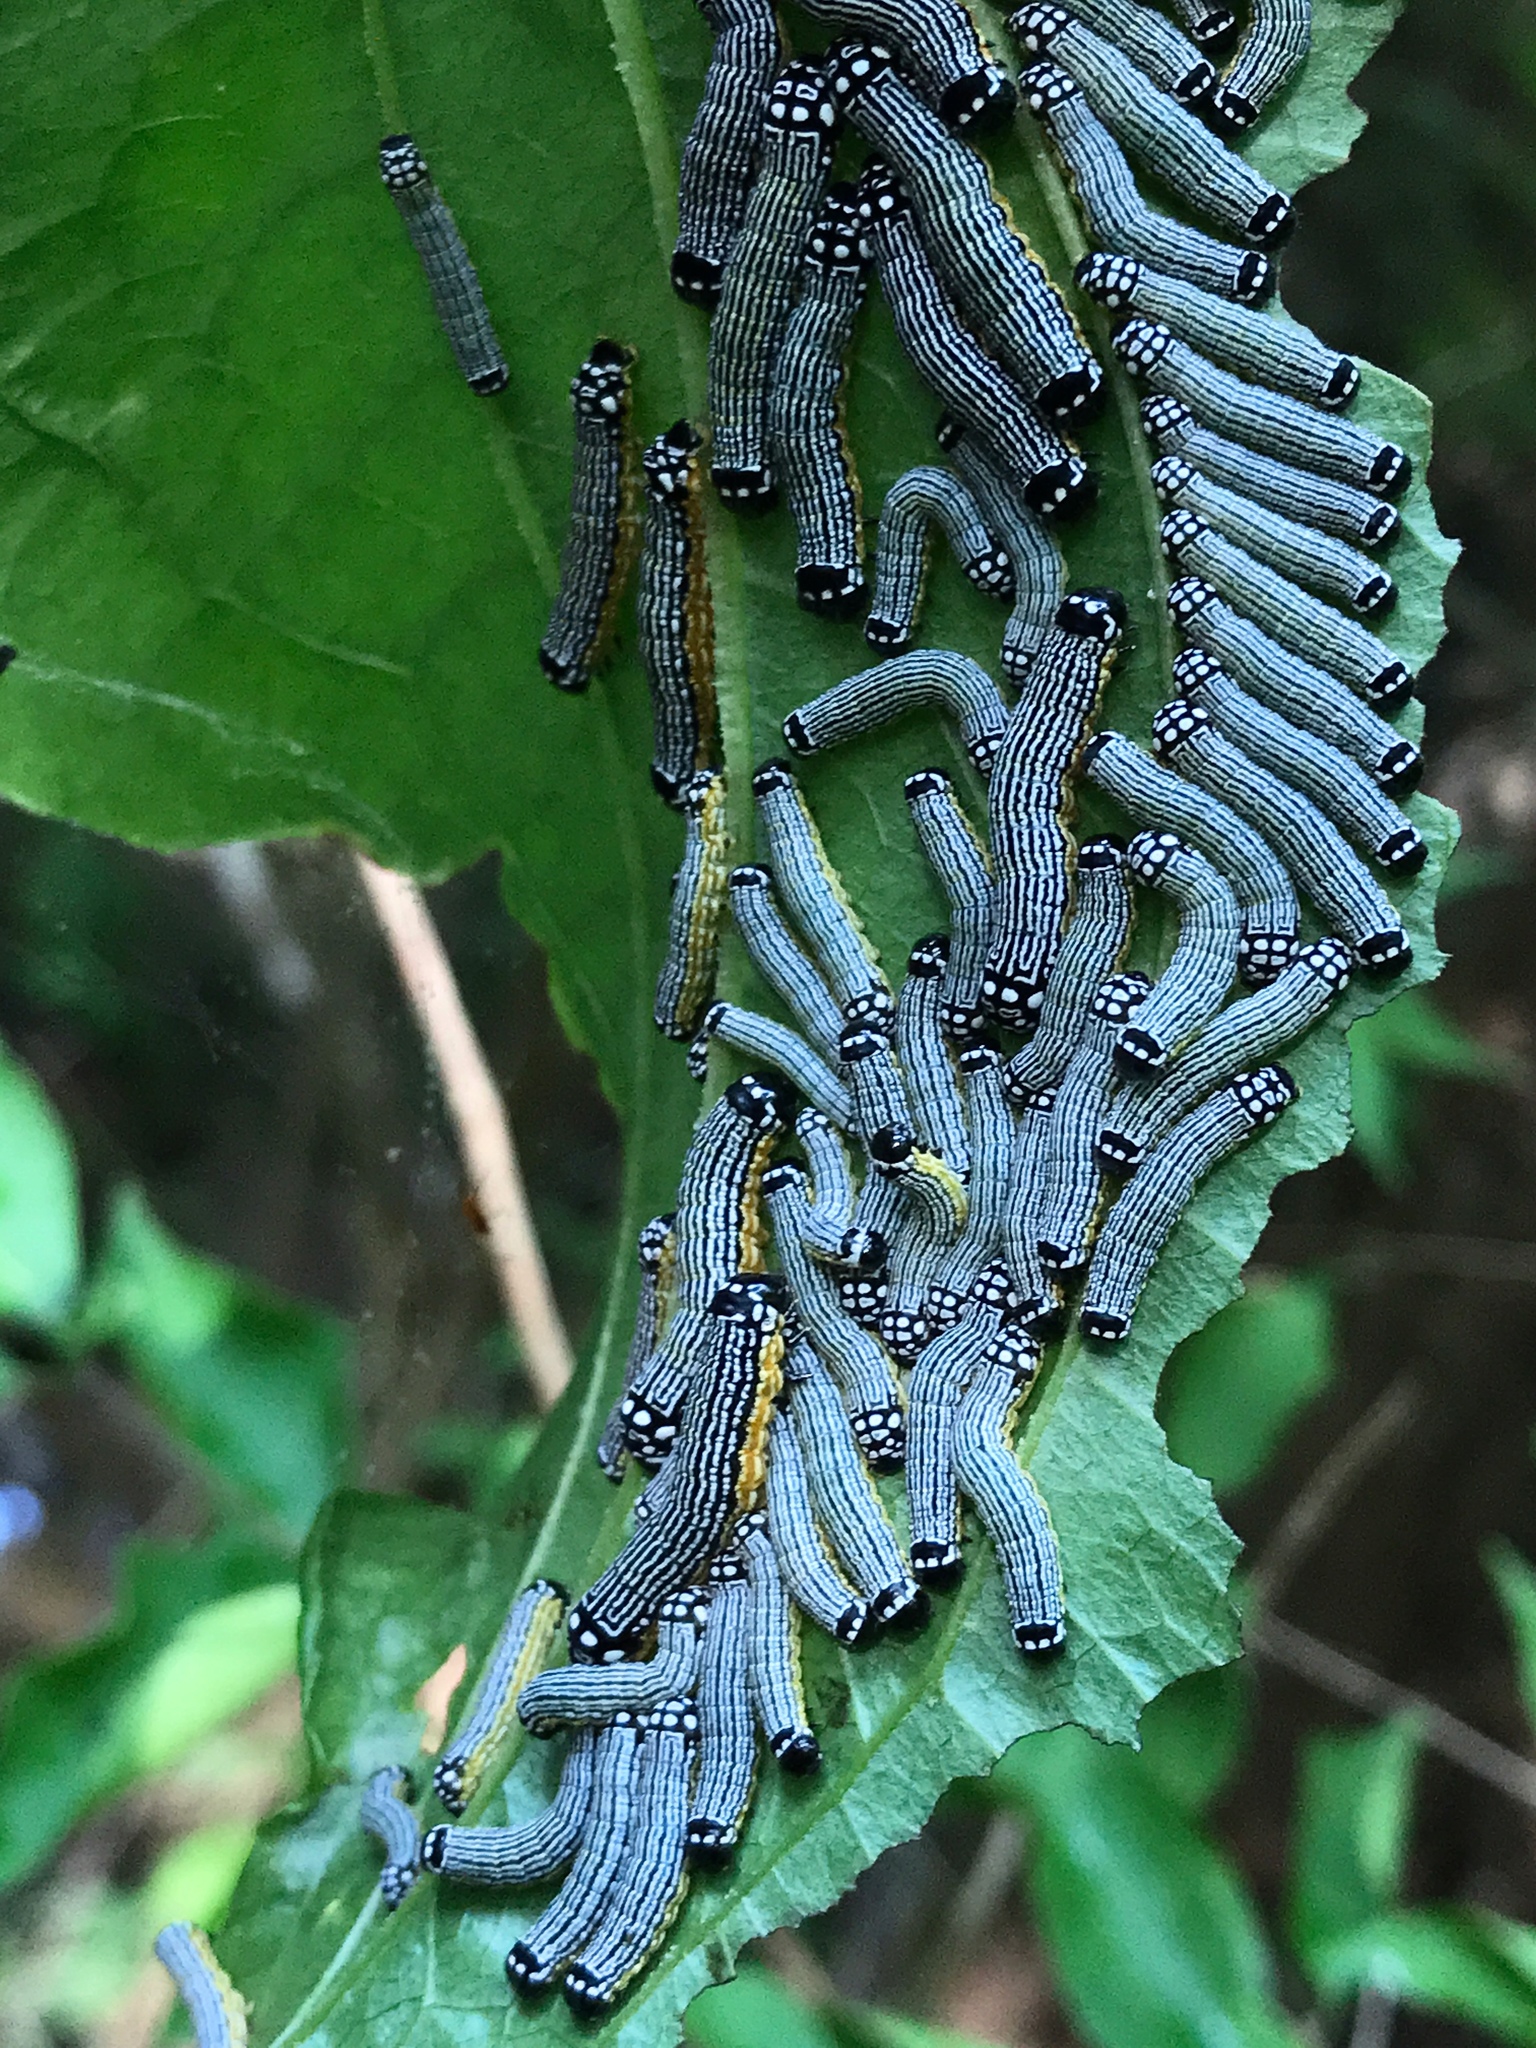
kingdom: Animalia
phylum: Arthropoda
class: Insecta
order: Lepidoptera
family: Noctuidae
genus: Phosphila
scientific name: Phosphila turbulenta
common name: Turbulent phosphila moth
